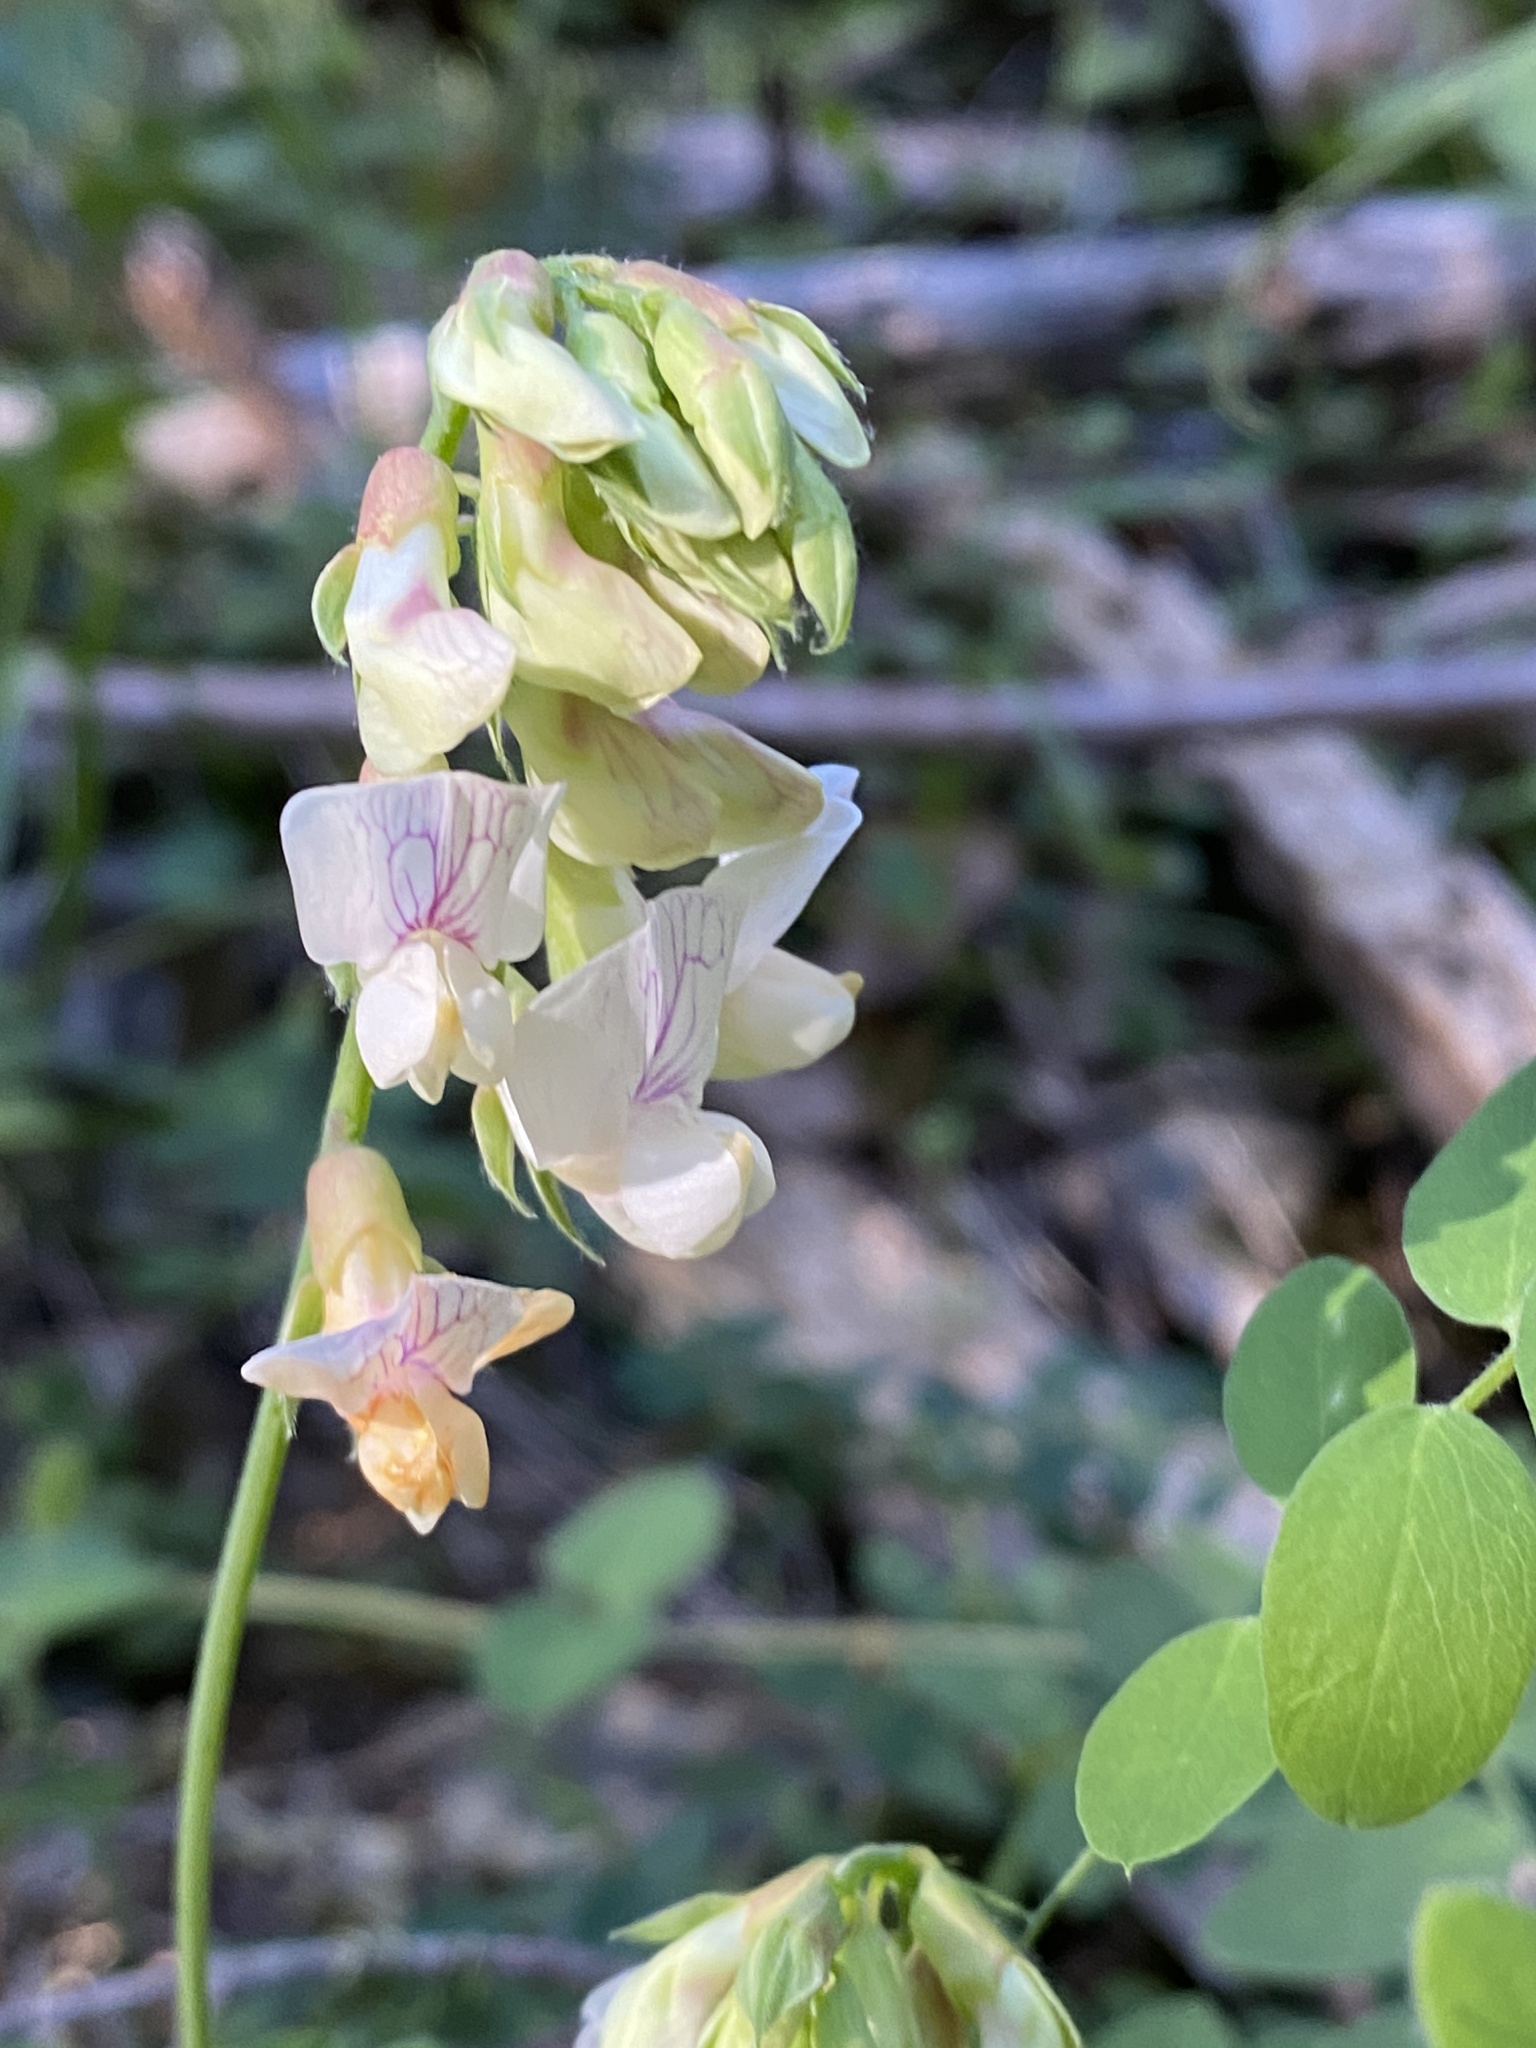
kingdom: Plantae
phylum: Tracheophyta
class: Magnoliopsida
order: Fabales
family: Fabaceae
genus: Lathyrus
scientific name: Lathyrus vestitus
